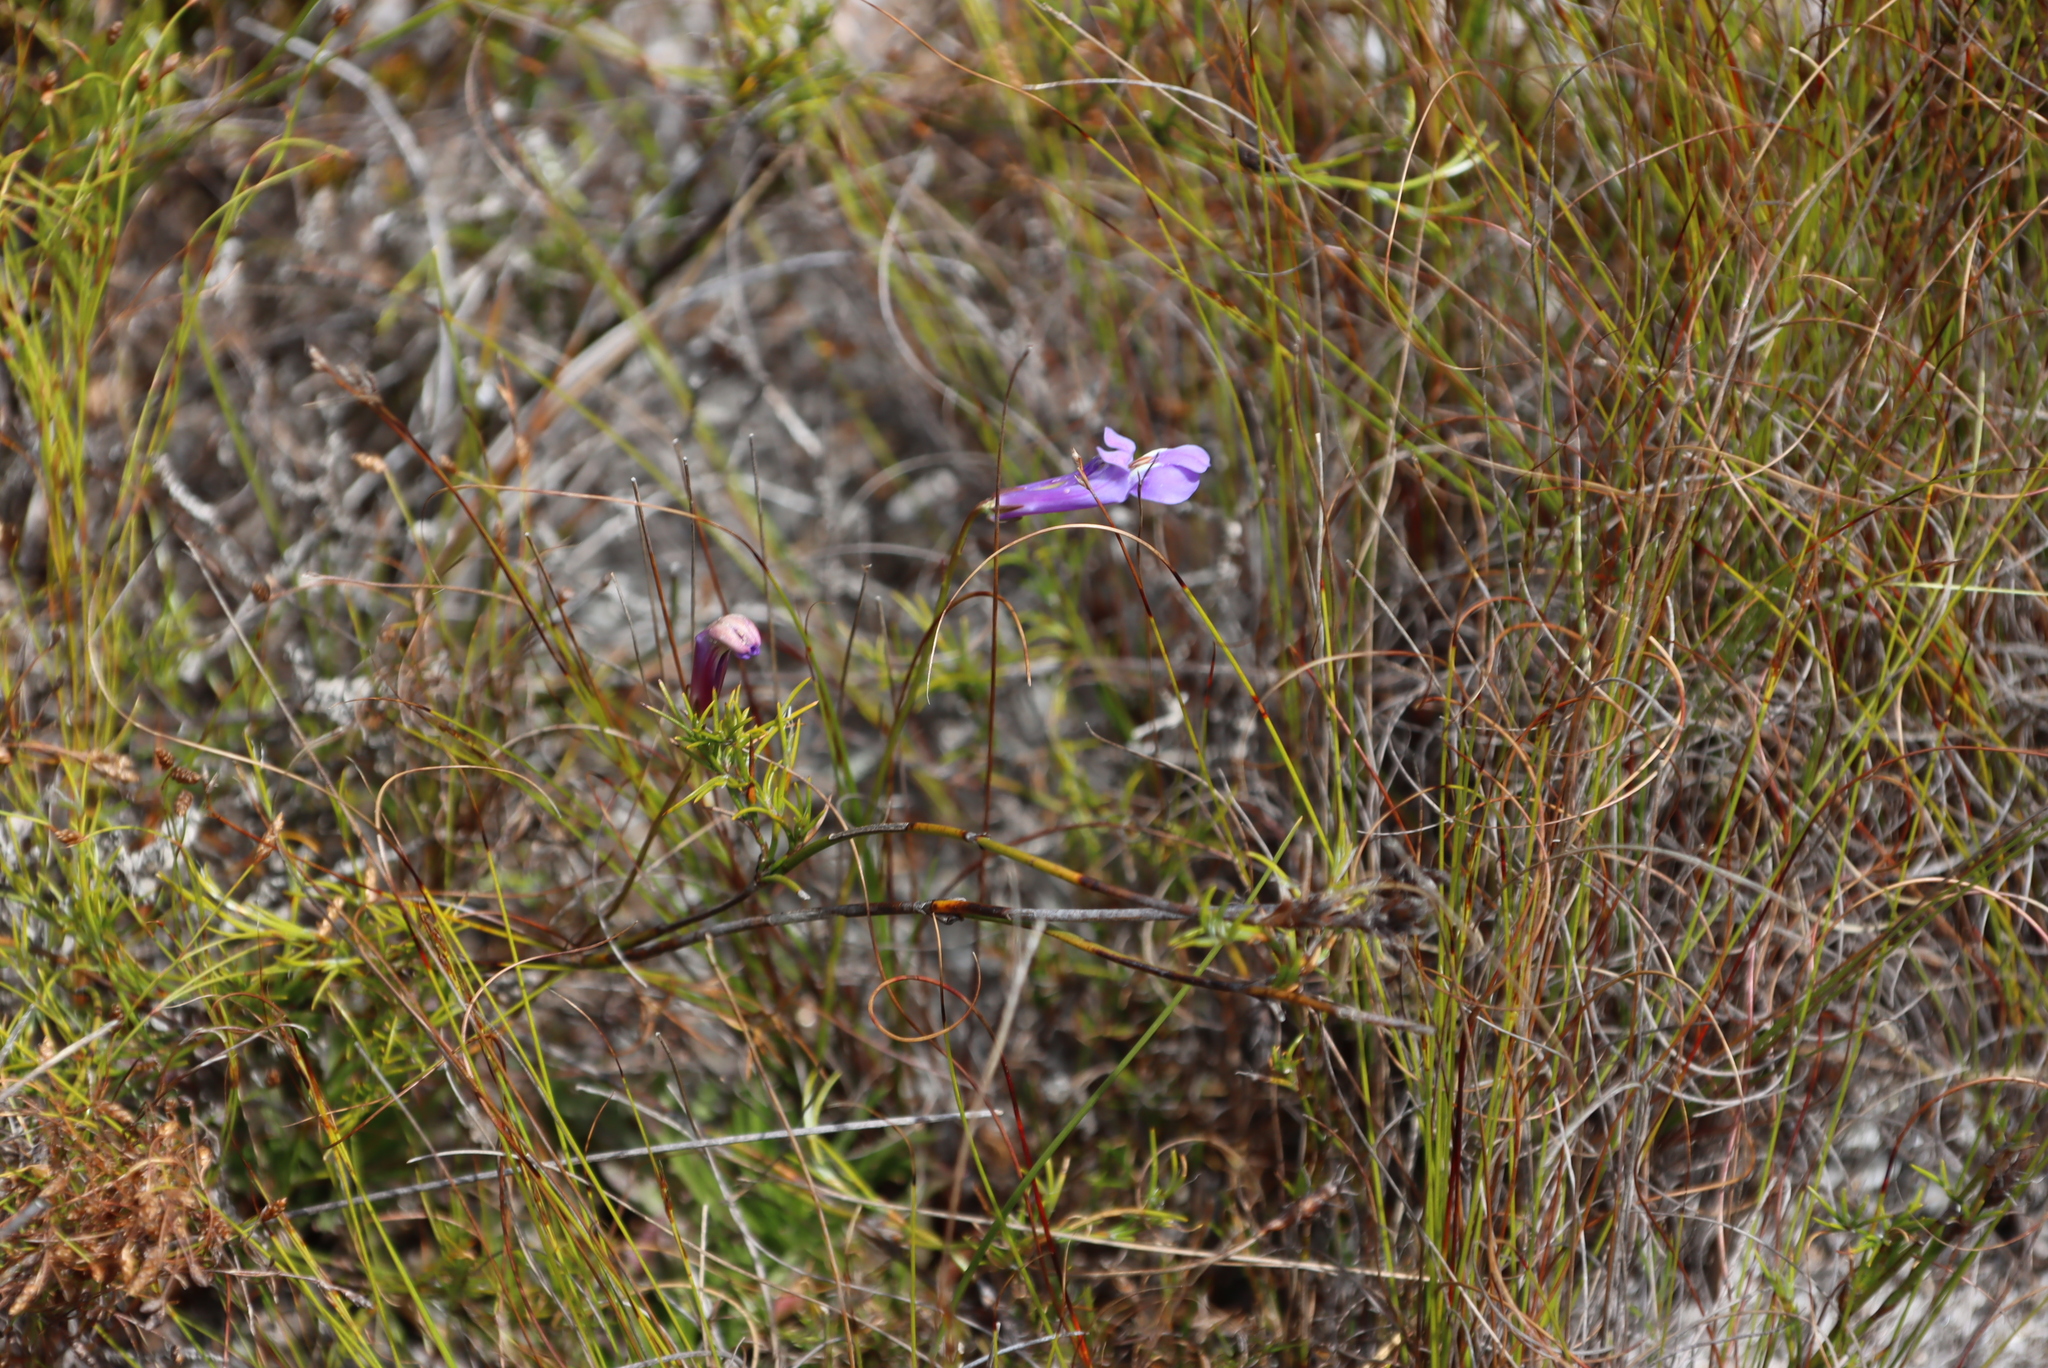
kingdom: Plantae
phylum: Tracheophyta
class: Magnoliopsida
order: Asterales
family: Campanulaceae
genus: Lobelia
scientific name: Lobelia coronopifolia
